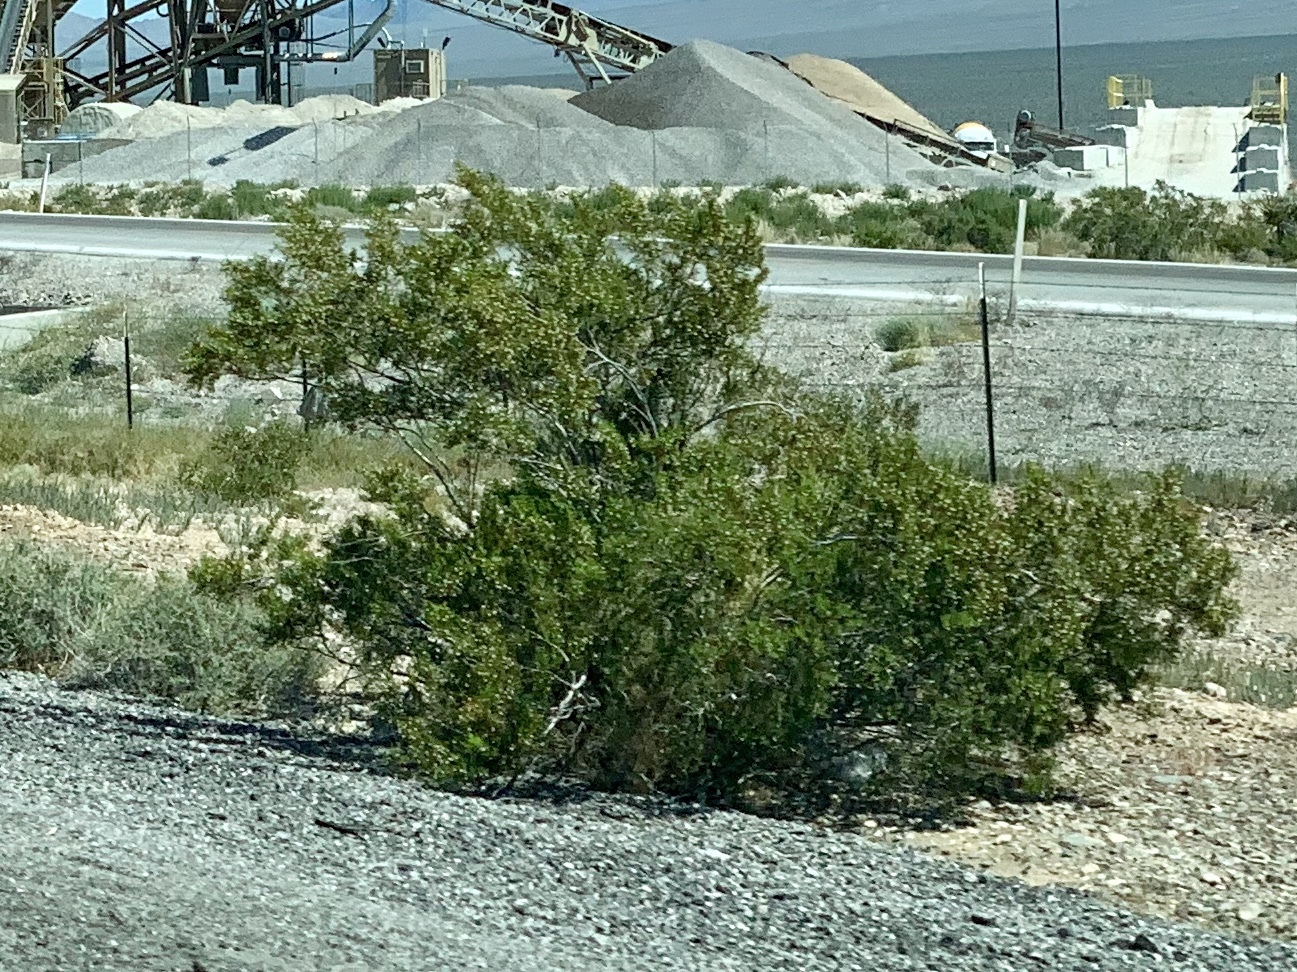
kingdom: Plantae
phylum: Tracheophyta
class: Magnoliopsida
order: Zygophyllales
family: Zygophyllaceae
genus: Larrea
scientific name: Larrea tridentata
